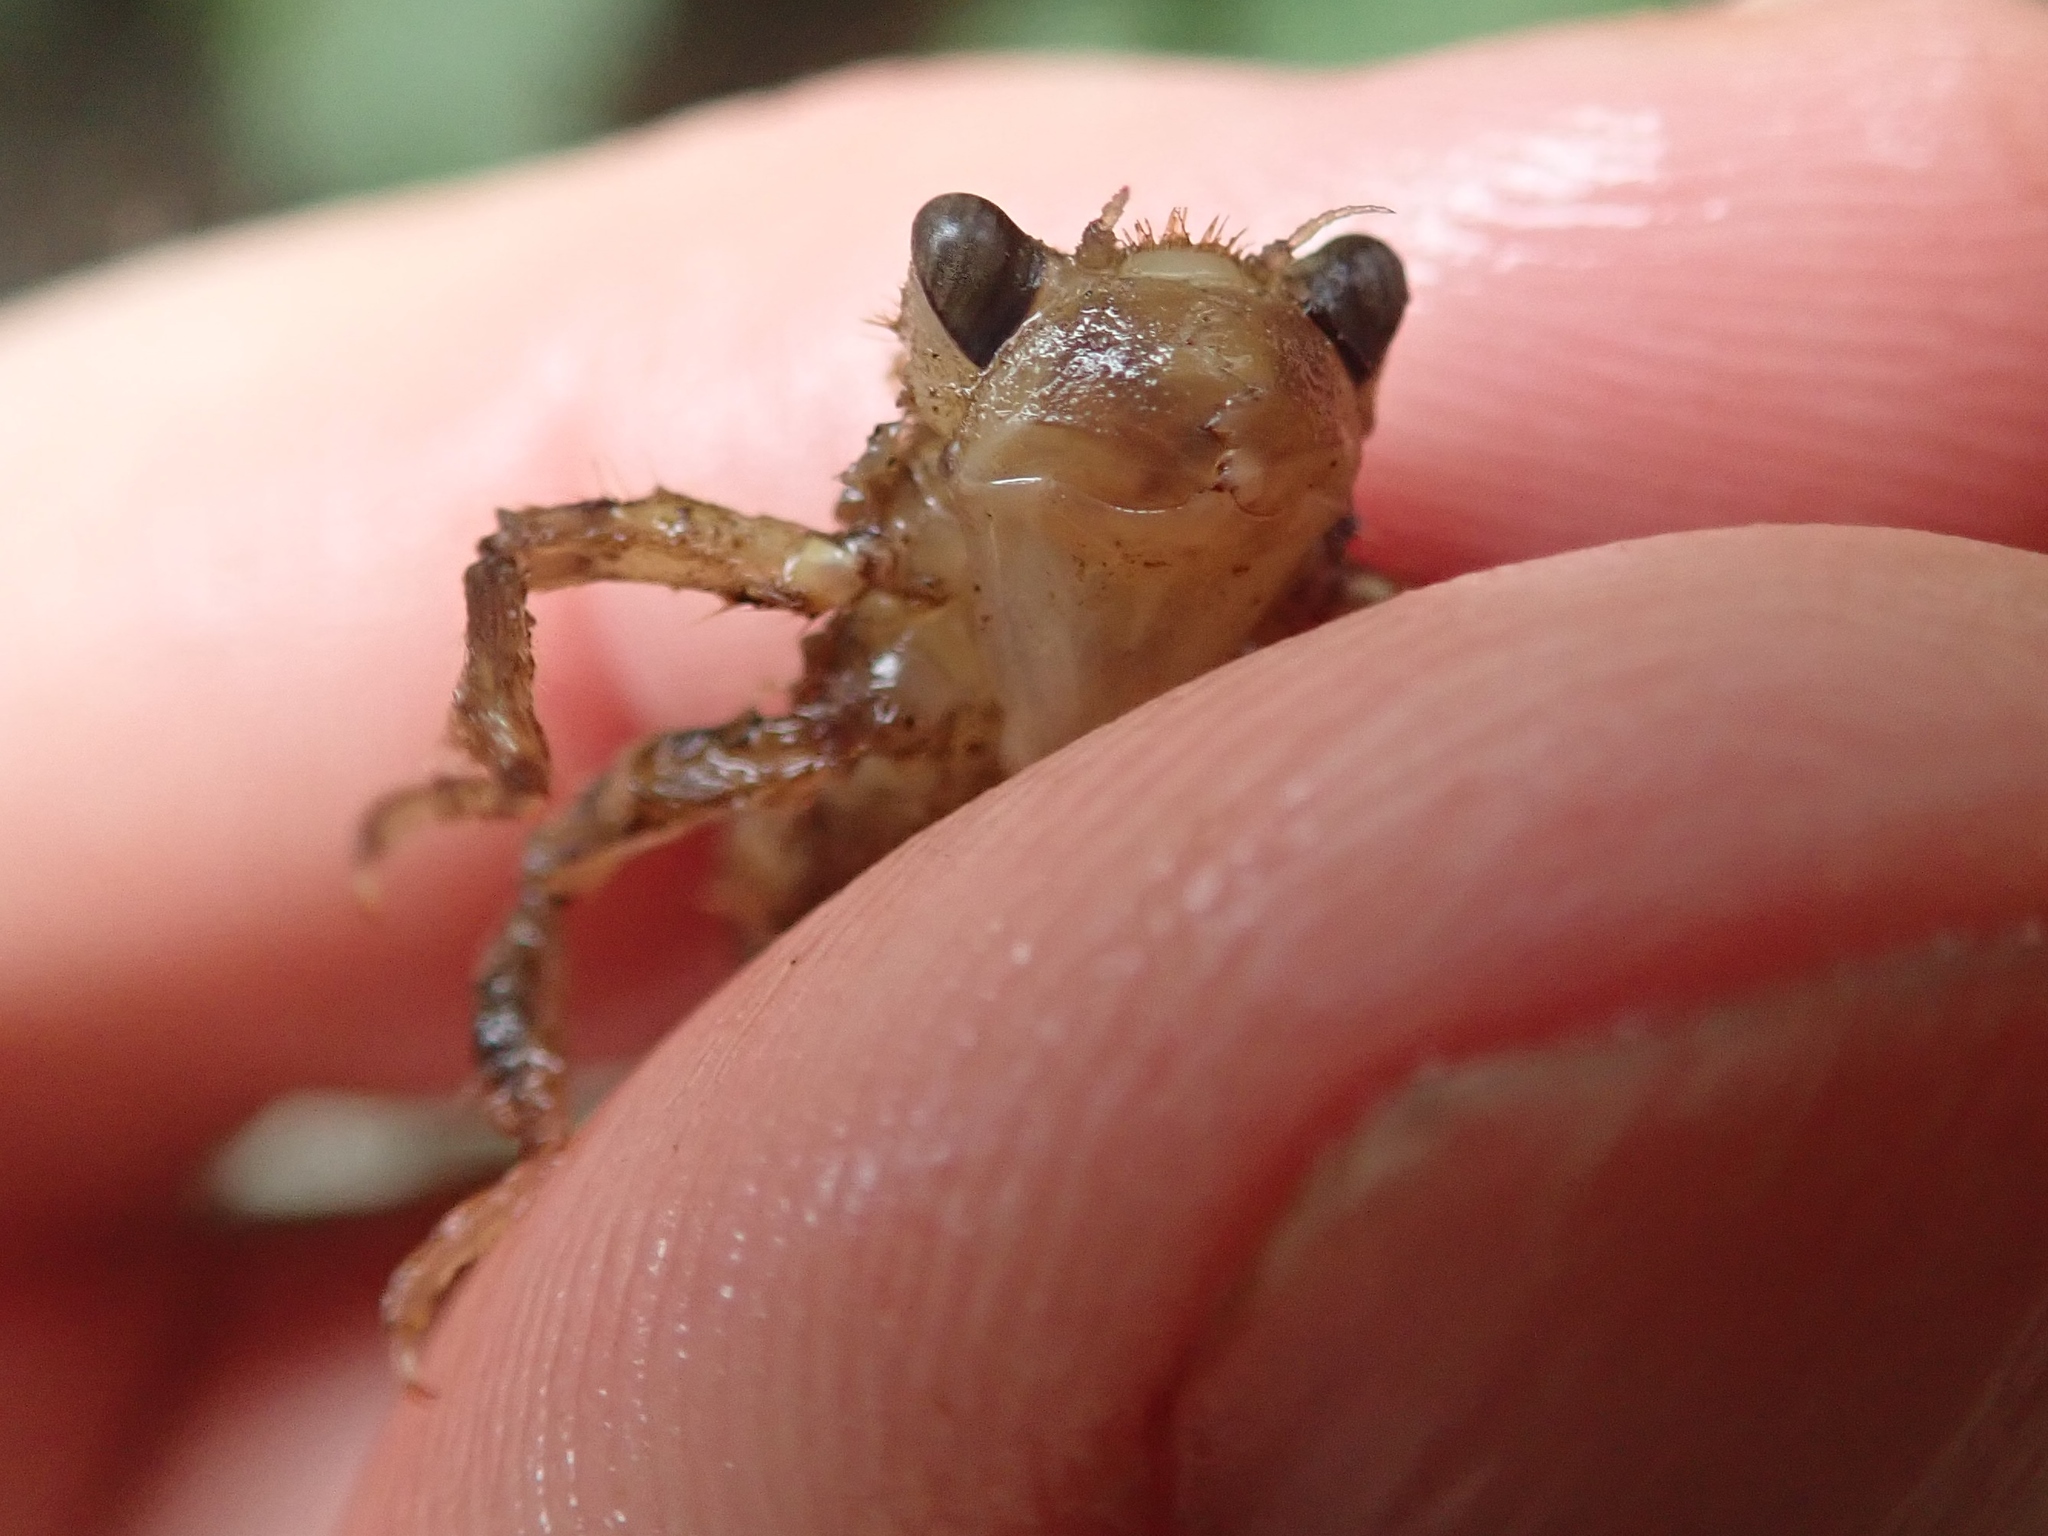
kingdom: Animalia
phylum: Arthropoda
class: Insecta
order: Odonata
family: Cordulegastridae
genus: Cordulegaster
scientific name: Cordulegaster dorsalis
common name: Pacific spiketail
